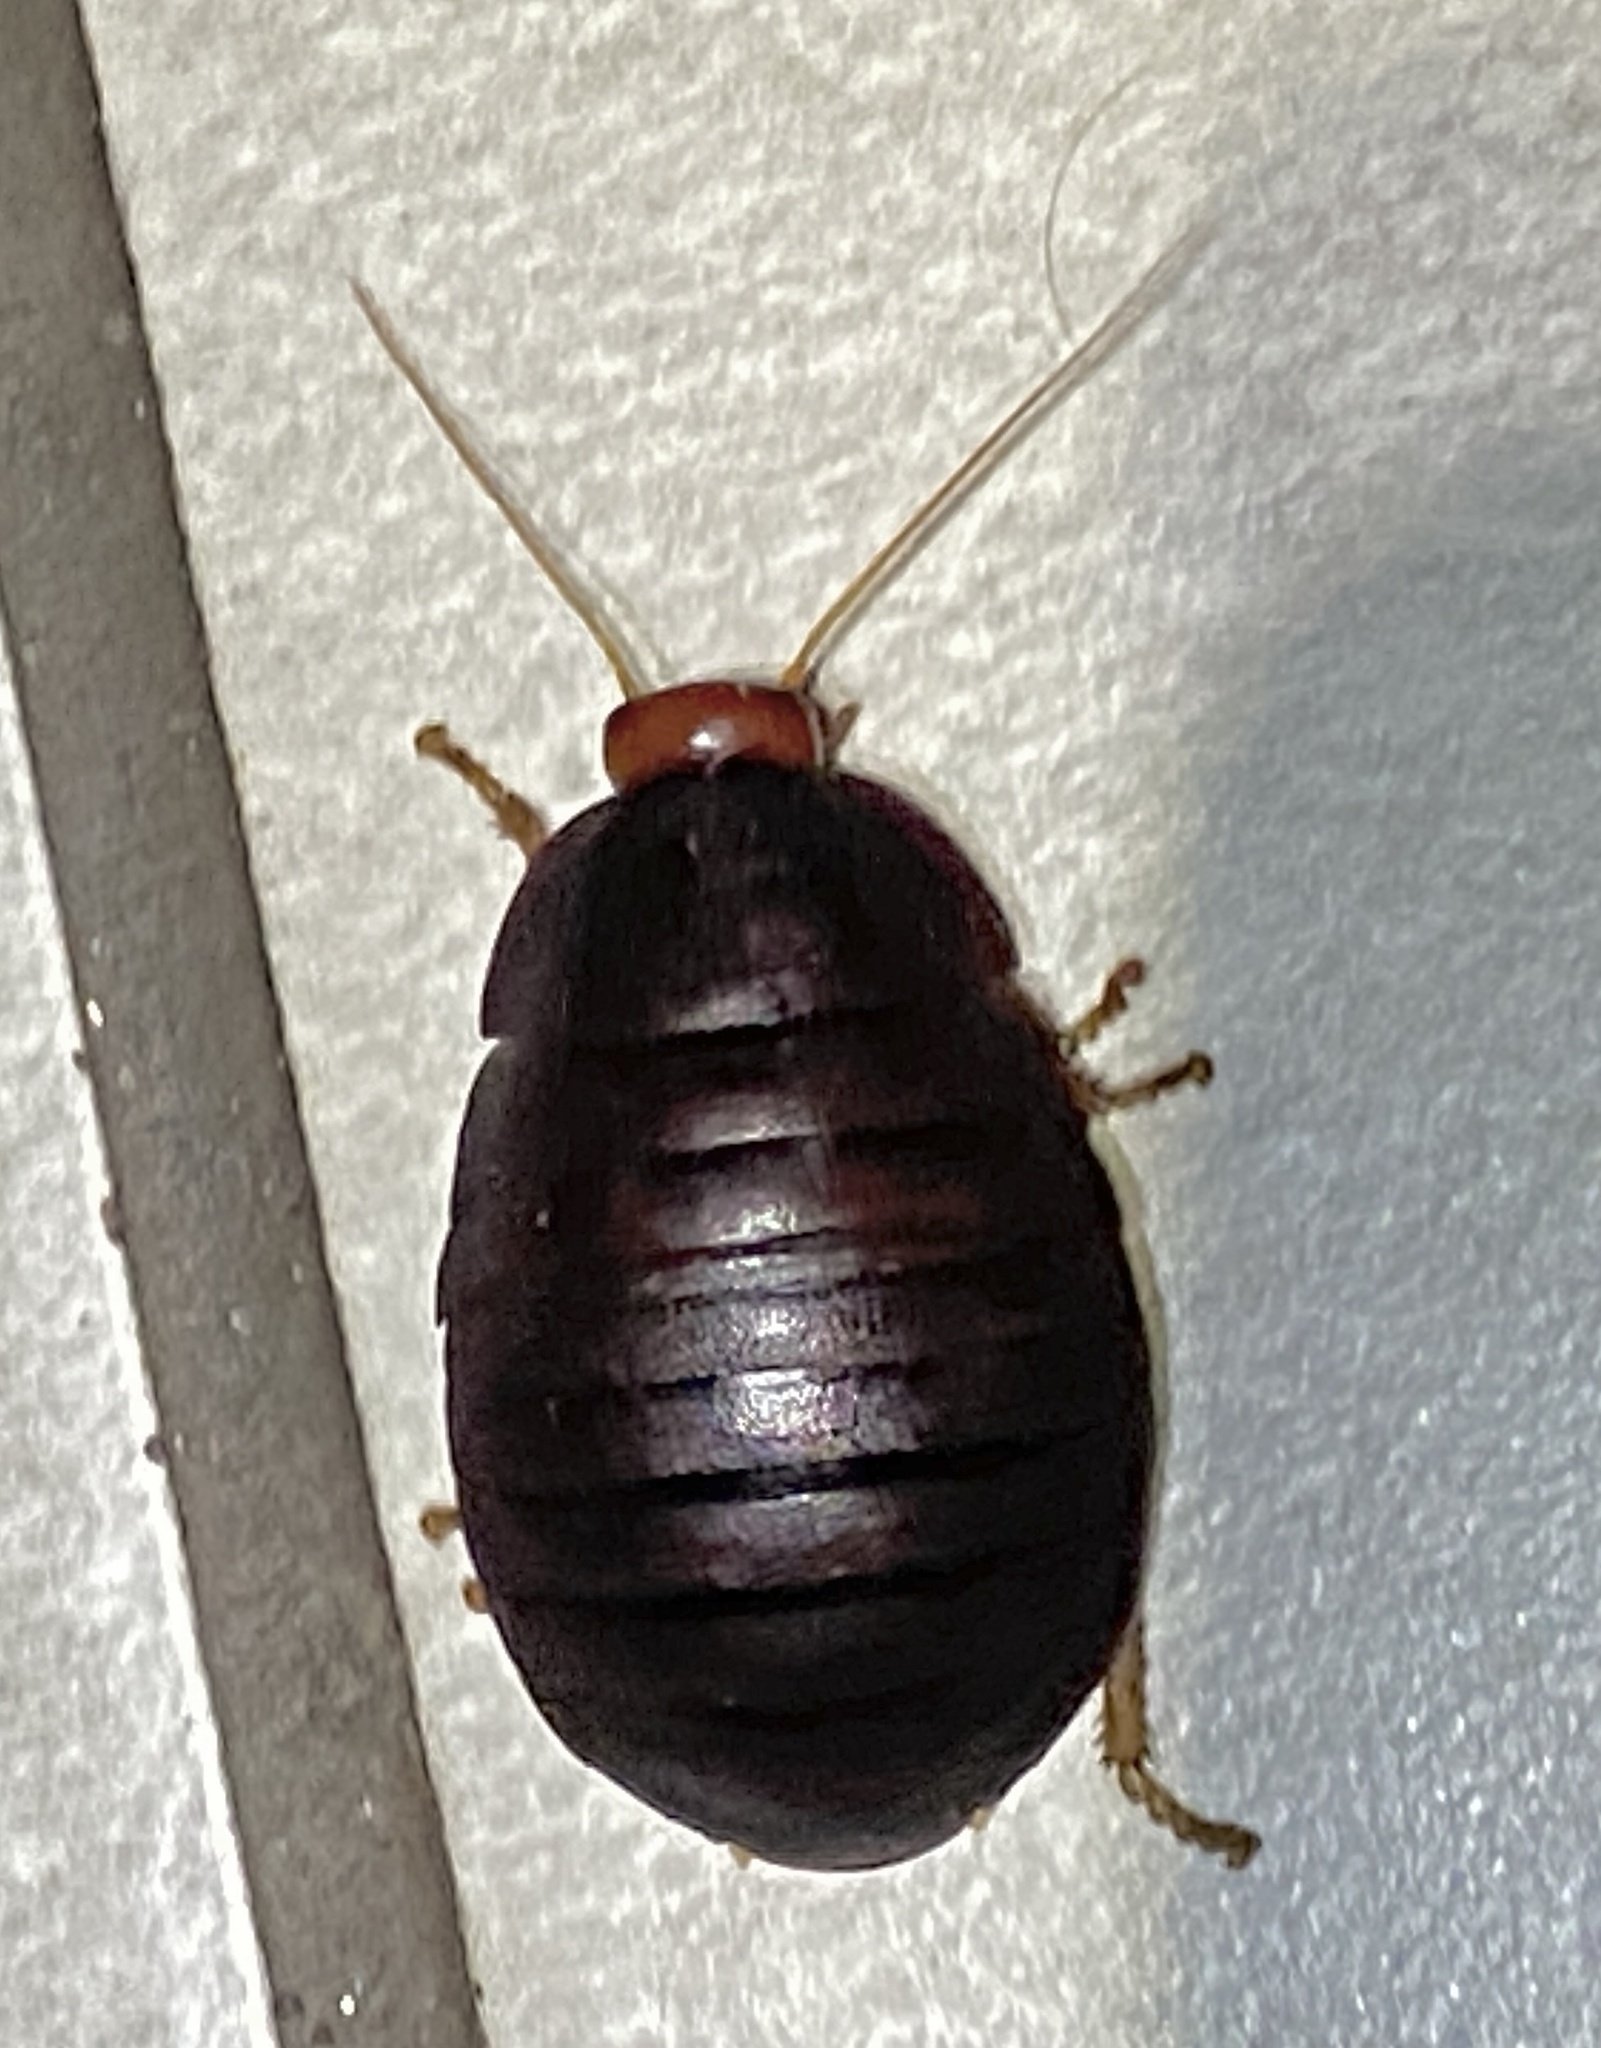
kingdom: Animalia
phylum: Arthropoda
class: Insecta
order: Blattodea
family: Blaberidae
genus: Aptera
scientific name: Aptera fusca
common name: Cape mountain cockroach
